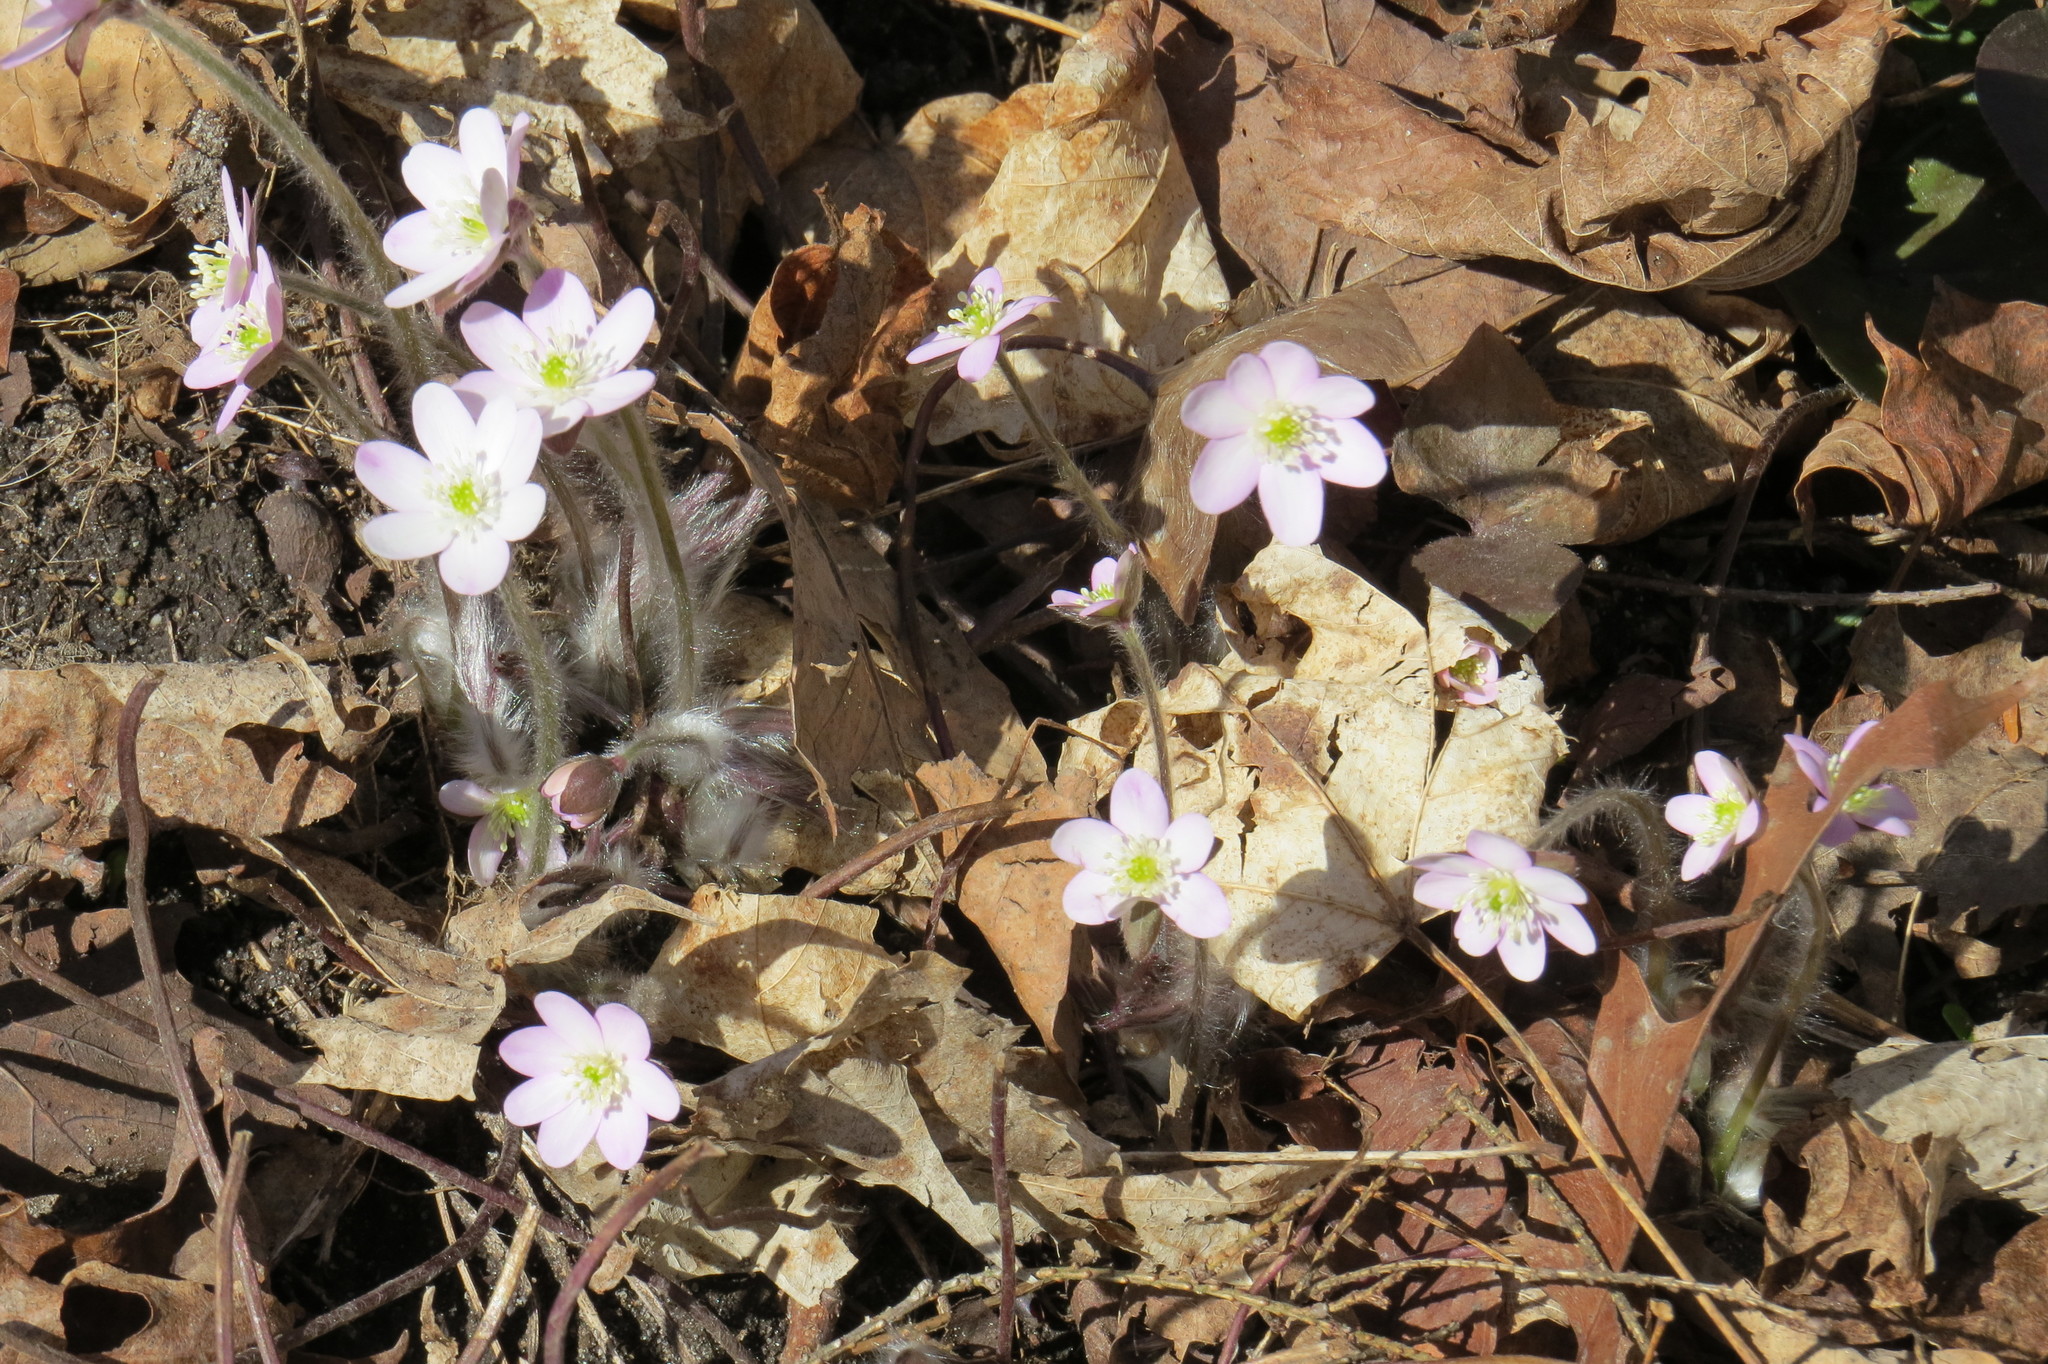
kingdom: Plantae
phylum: Tracheophyta
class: Magnoliopsida
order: Ranunculales
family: Ranunculaceae
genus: Hepatica
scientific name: Hepatica acutiloba
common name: Sharp-lobed hepatica
